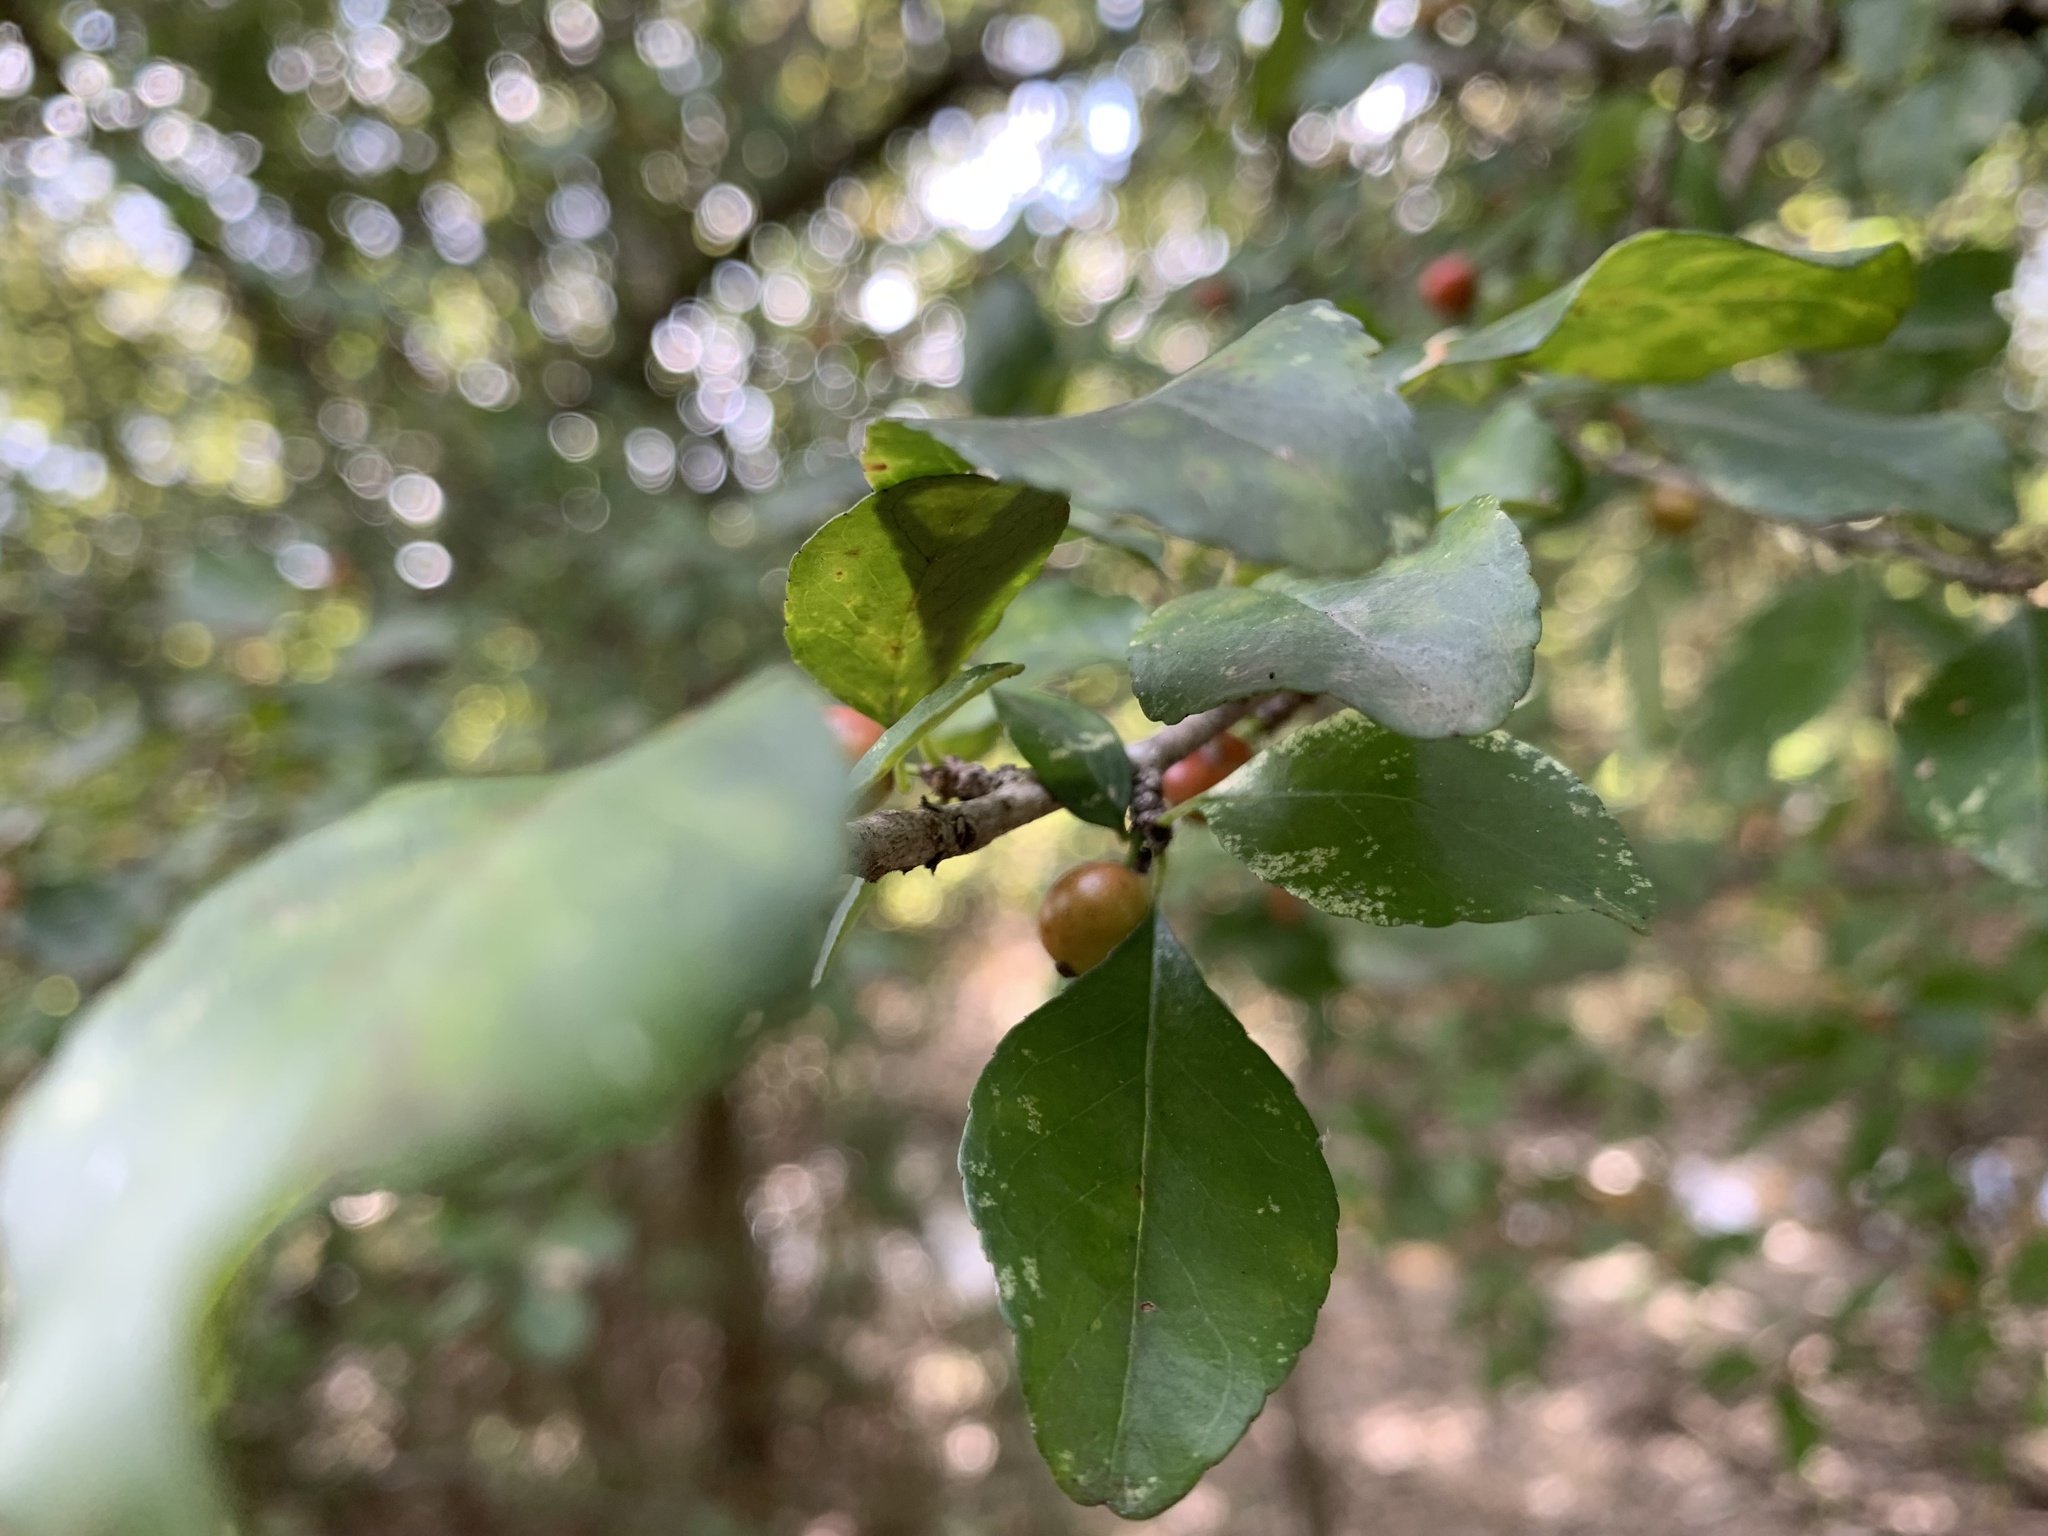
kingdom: Plantae
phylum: Tracheophyta
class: Magnoliopsida
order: Aquifoliales
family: Aquifoliaceae
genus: Ilex
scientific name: Ilex decidua
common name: Possum-haw
